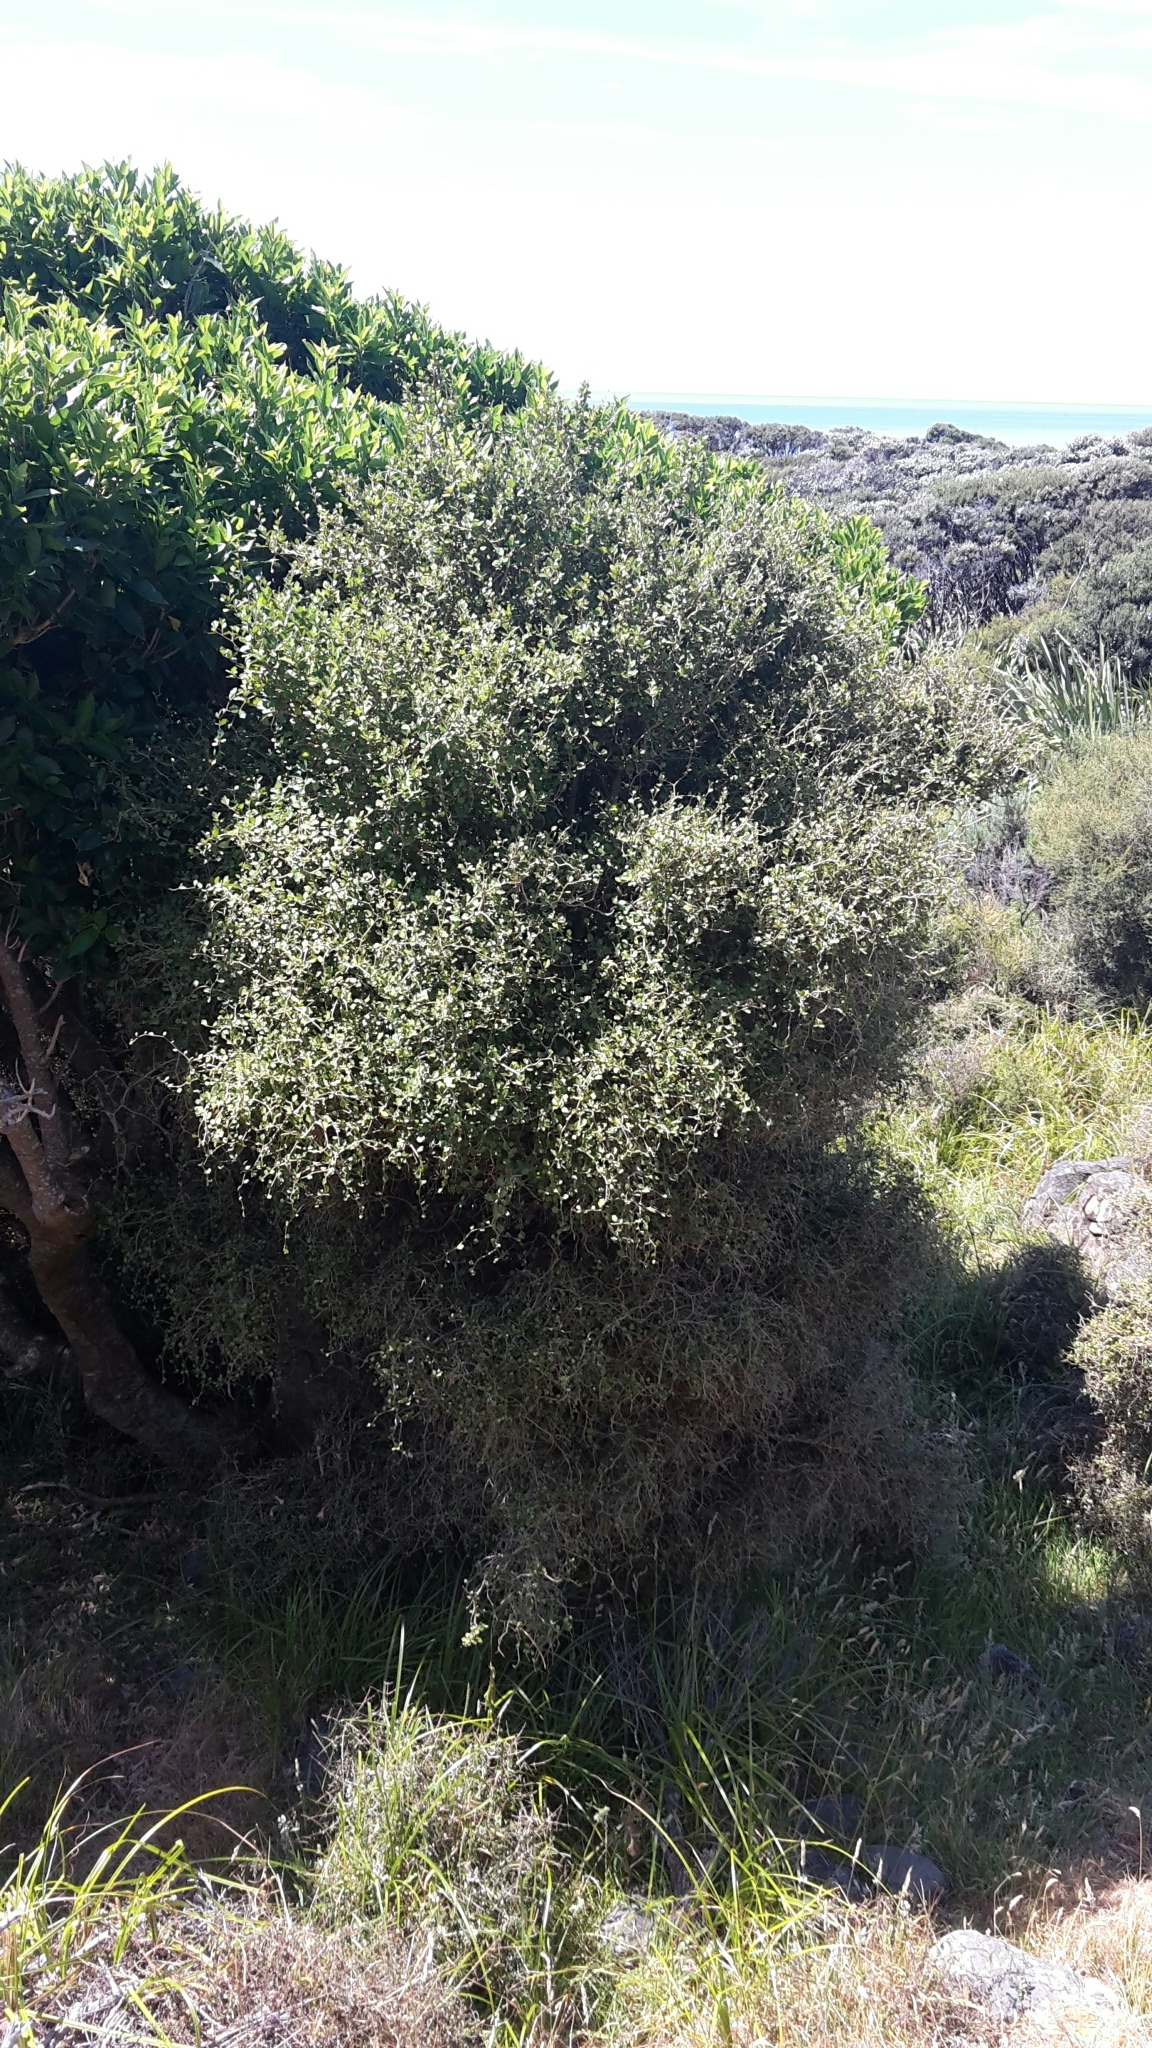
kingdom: Plantae
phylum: Tracheophyta
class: Magnoliopsida
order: Apiales
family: Pennantiaceae
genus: Pennantia
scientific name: Pennantia corymbosa
